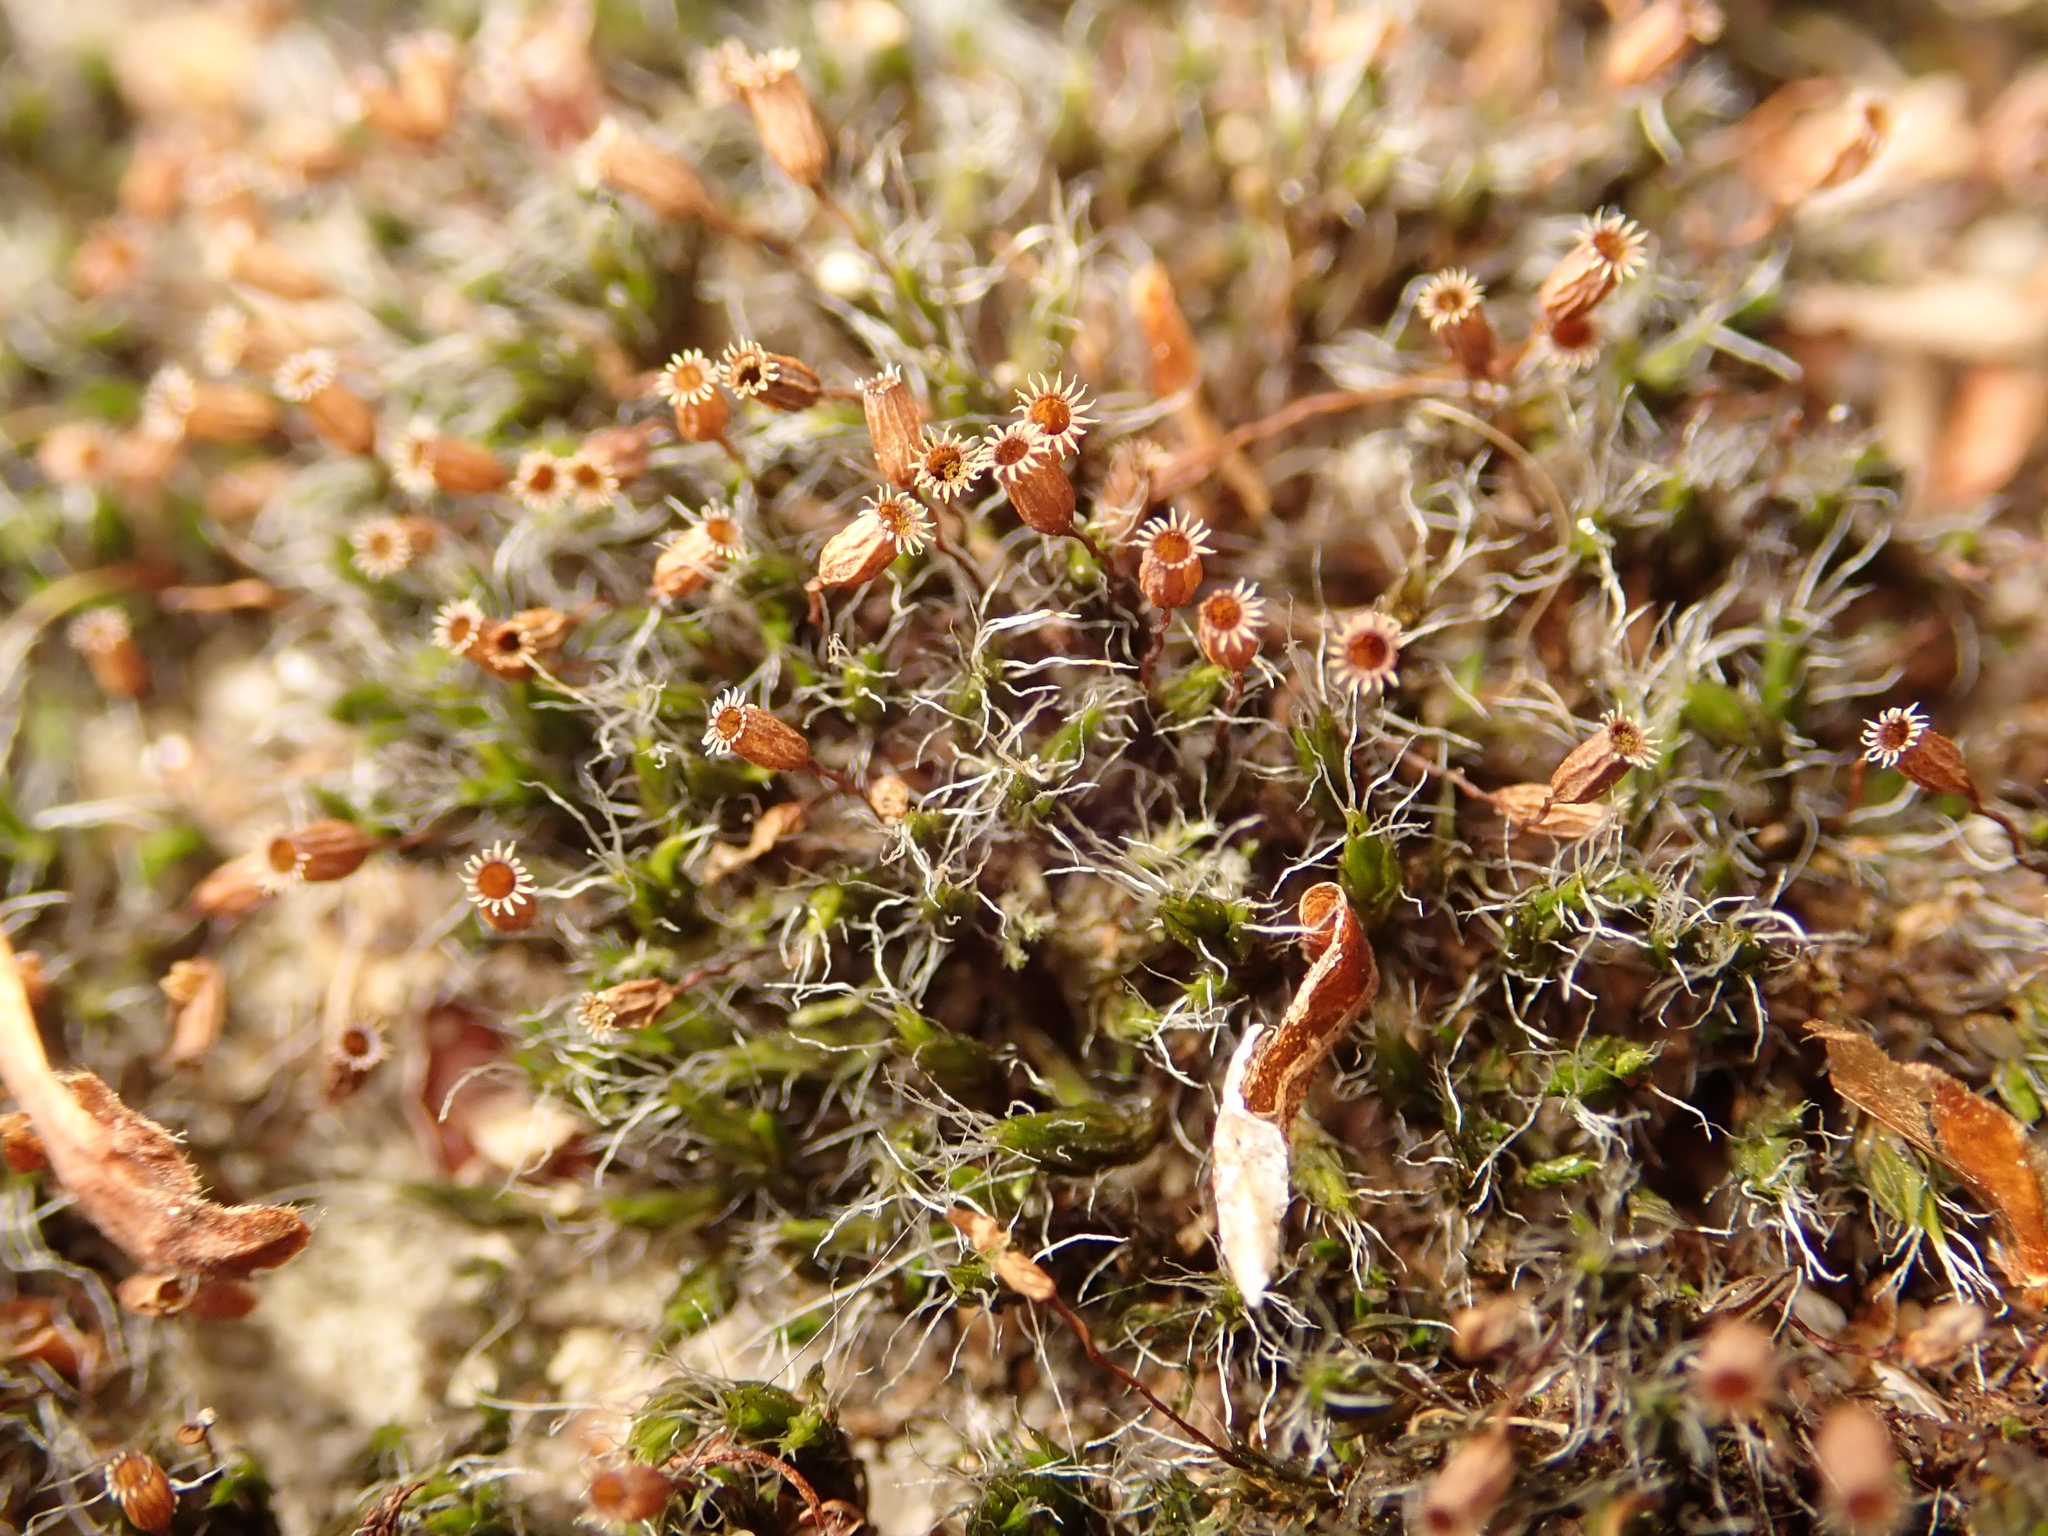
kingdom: Plantae
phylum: Bryophyta
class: Bryopsida
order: Grimmiales
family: Grimmiaceae
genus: Grimmia
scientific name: Grimmia pulvinata
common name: Grey-cushioned grimmia
